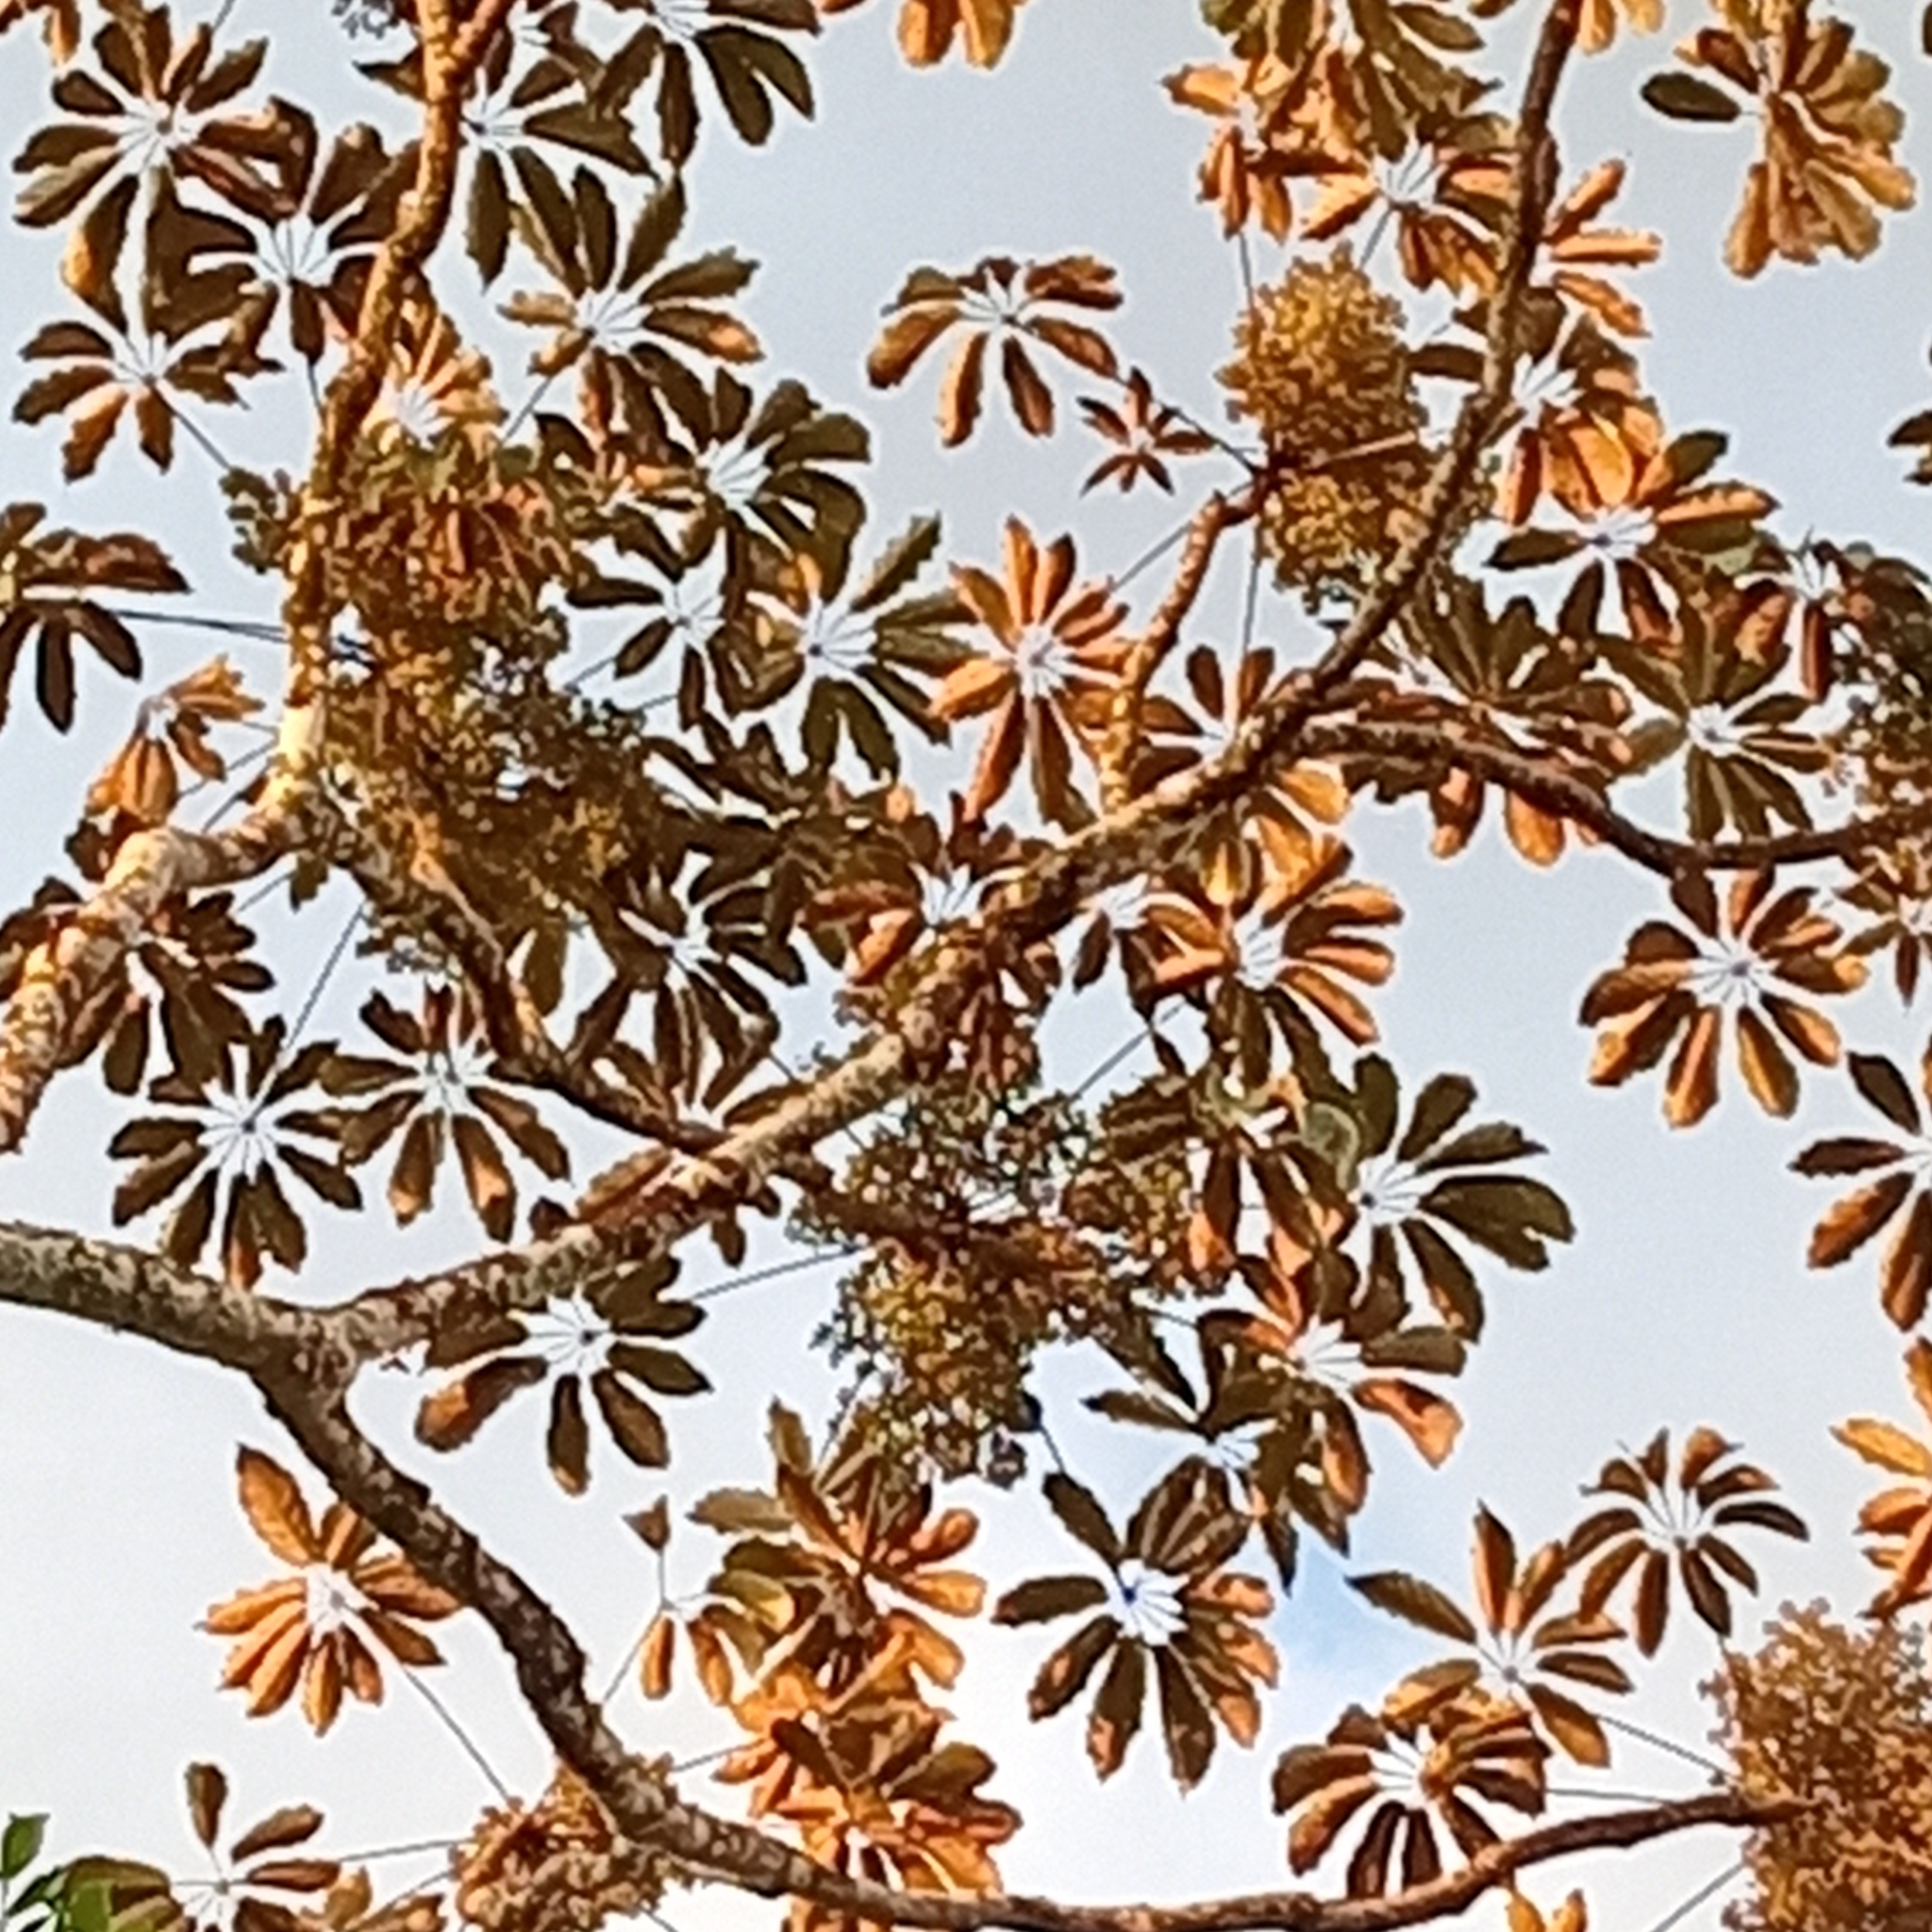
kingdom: Plantae
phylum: Tracheophyta
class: Magnoliopsida
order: Apiales
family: Araliaceae
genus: Didymopanax
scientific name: Didymopanax morototoni
